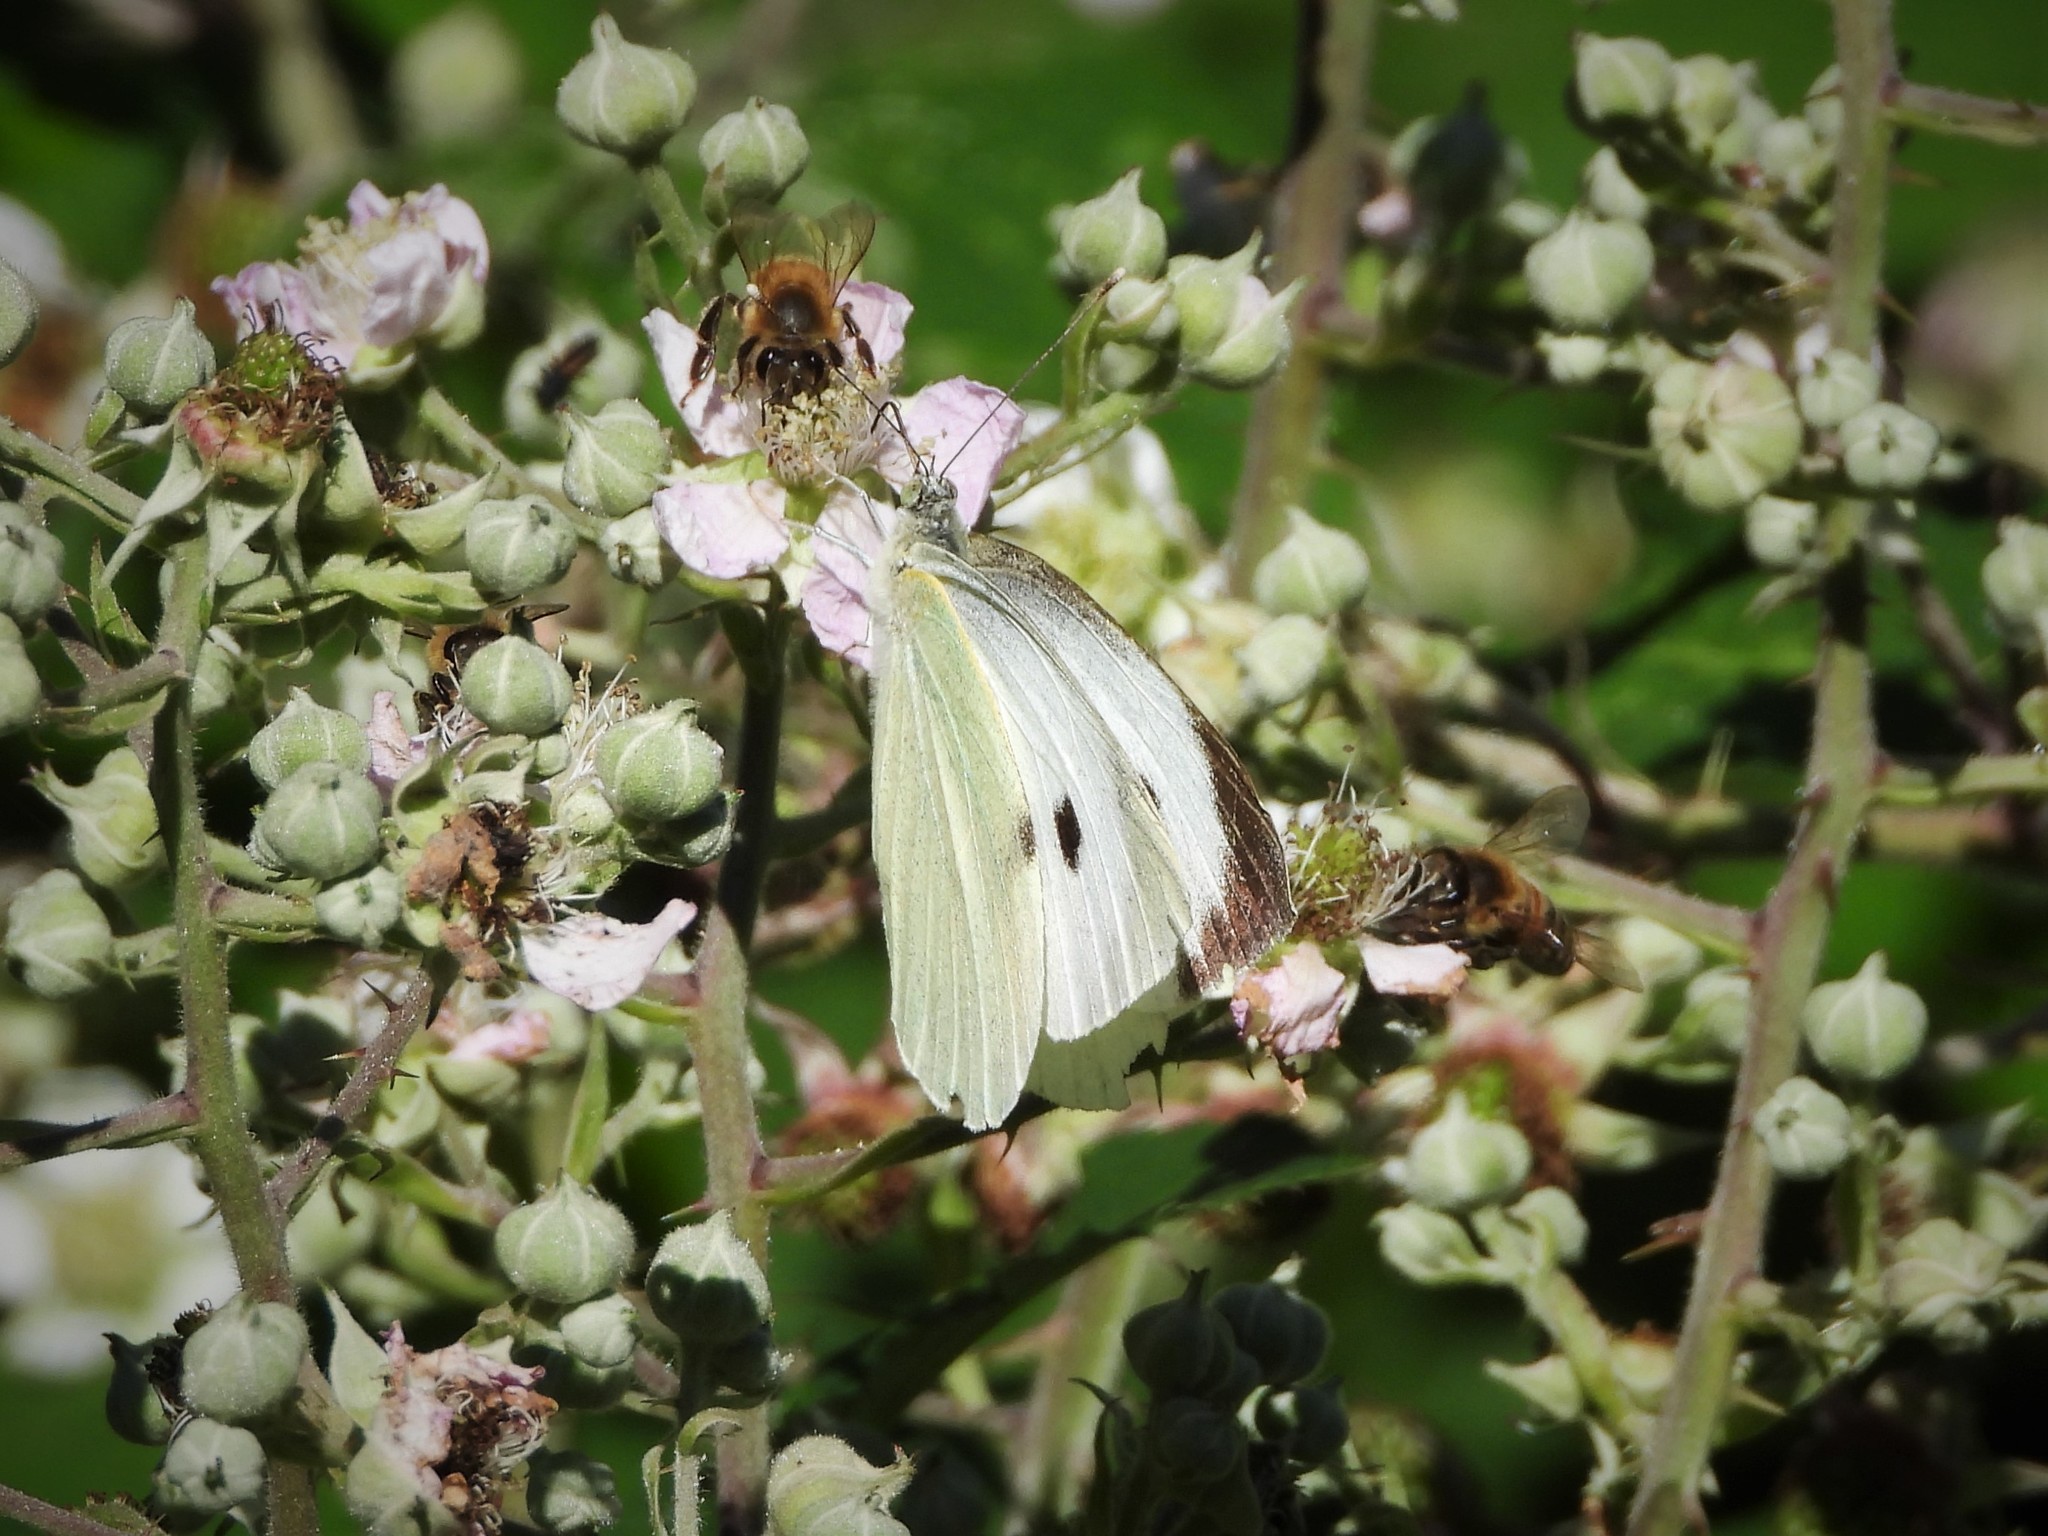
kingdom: Animalia
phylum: Arthropoda
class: Insecta
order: Lepidoptera
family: Pieridae
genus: Pieris
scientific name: Pieris brassicae
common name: Large white
